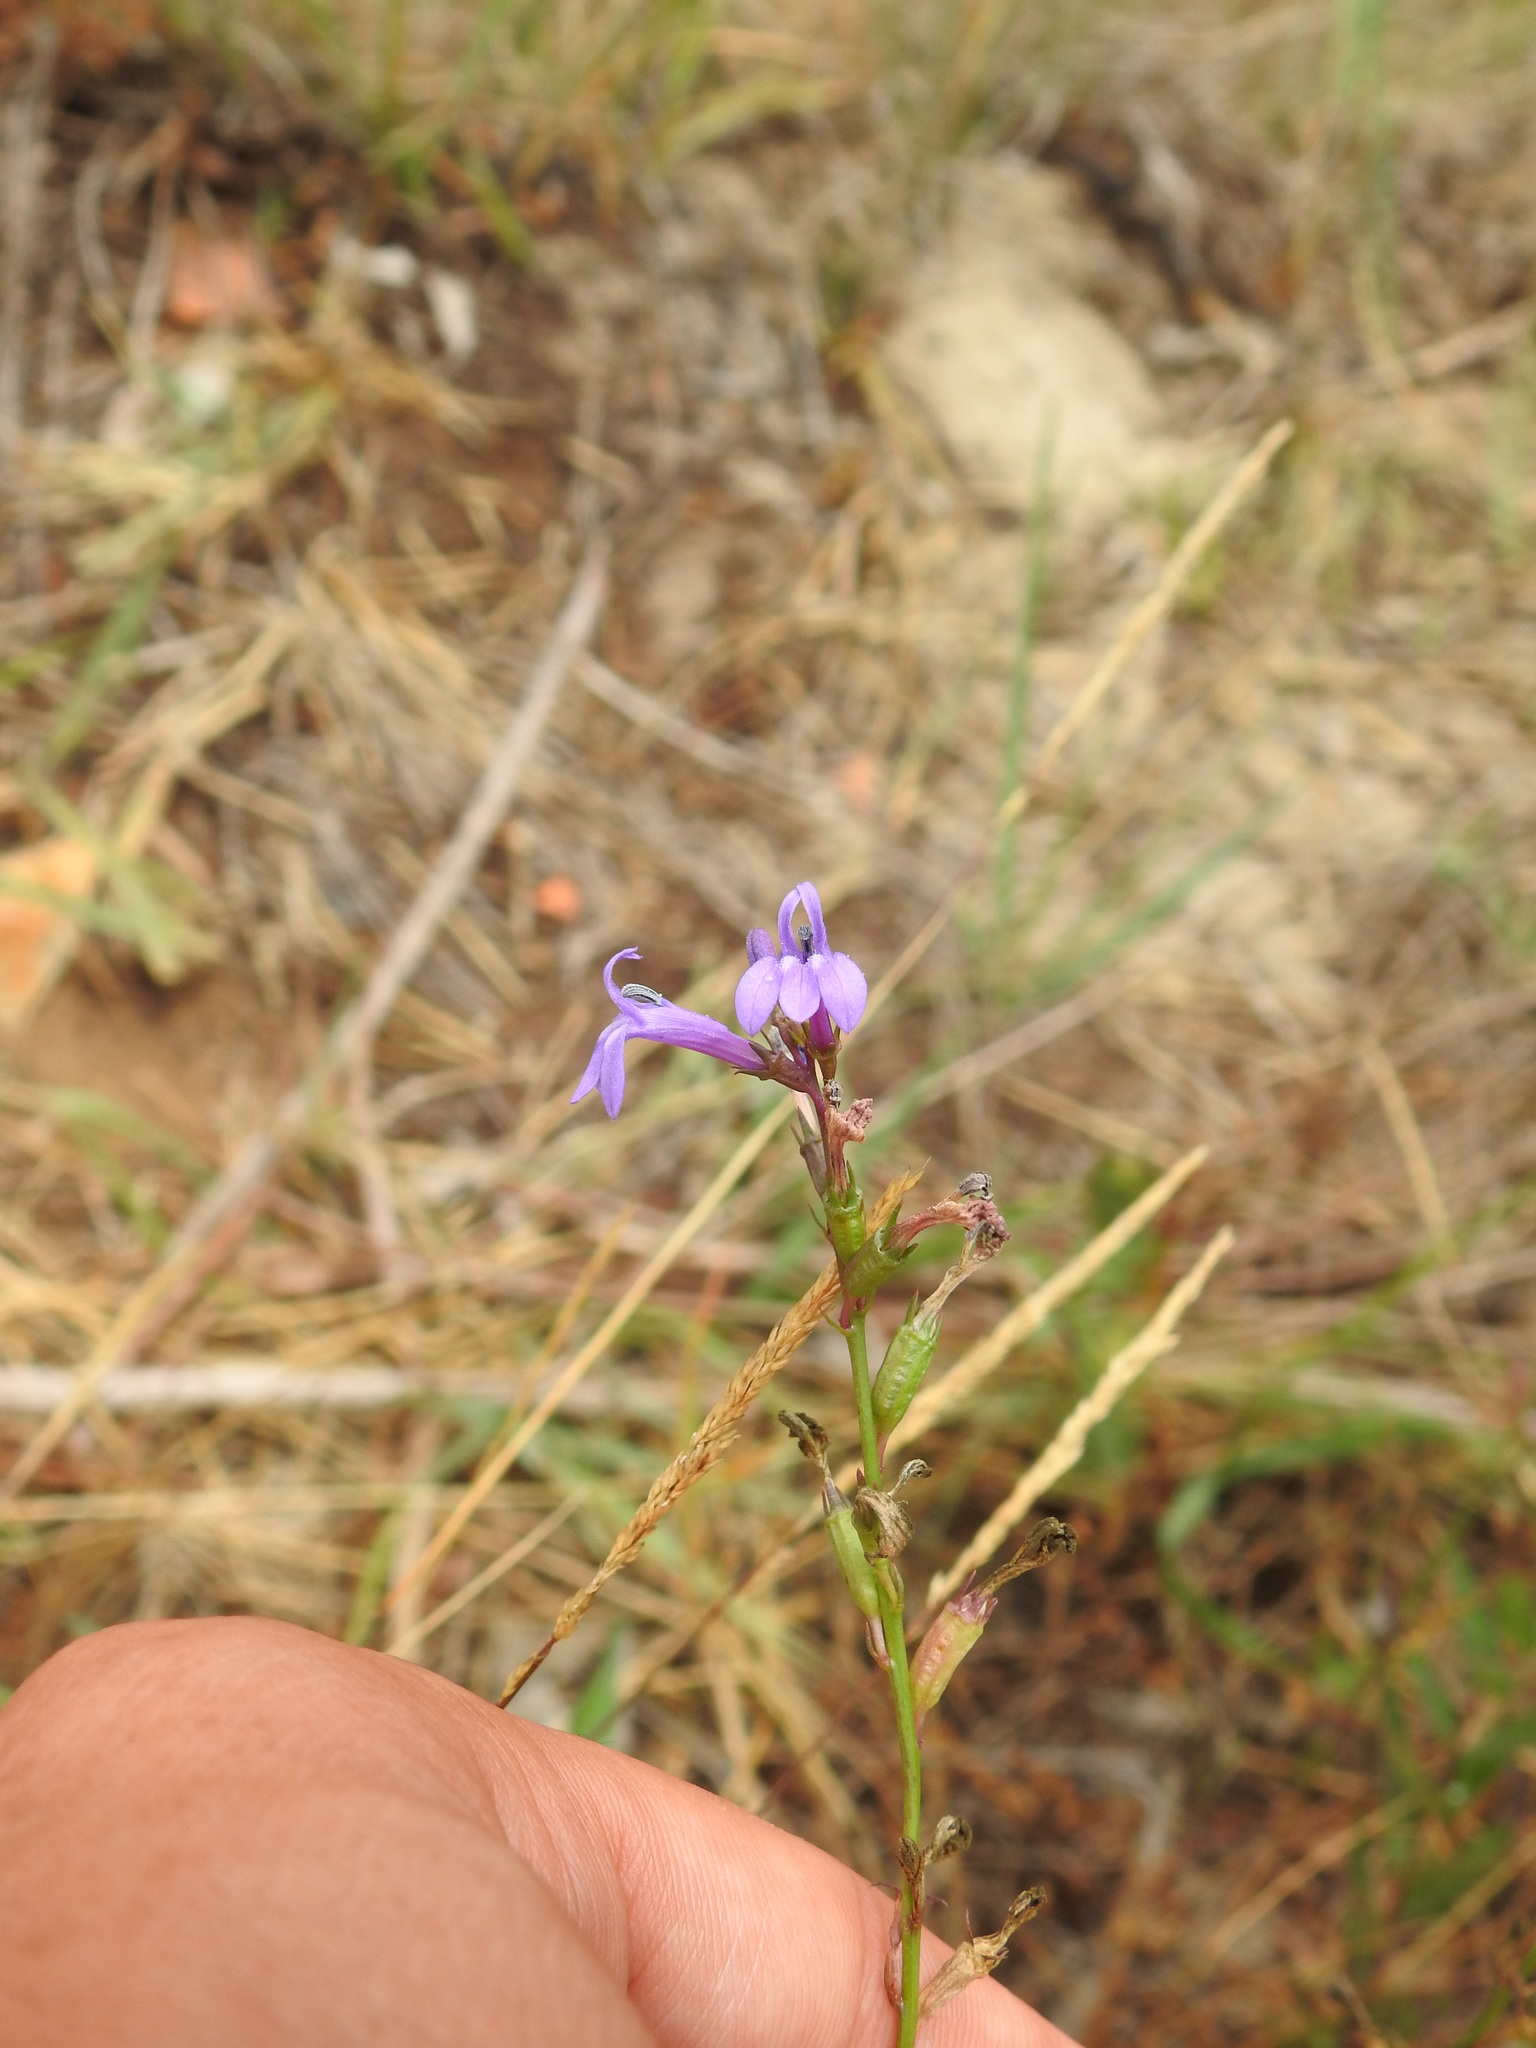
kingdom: Plantae
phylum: Tracheophyta
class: Magnoliopsida
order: Asterales
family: Campanulaceae
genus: Lobelia
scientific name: Lobelia urens
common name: Heath lobelia
